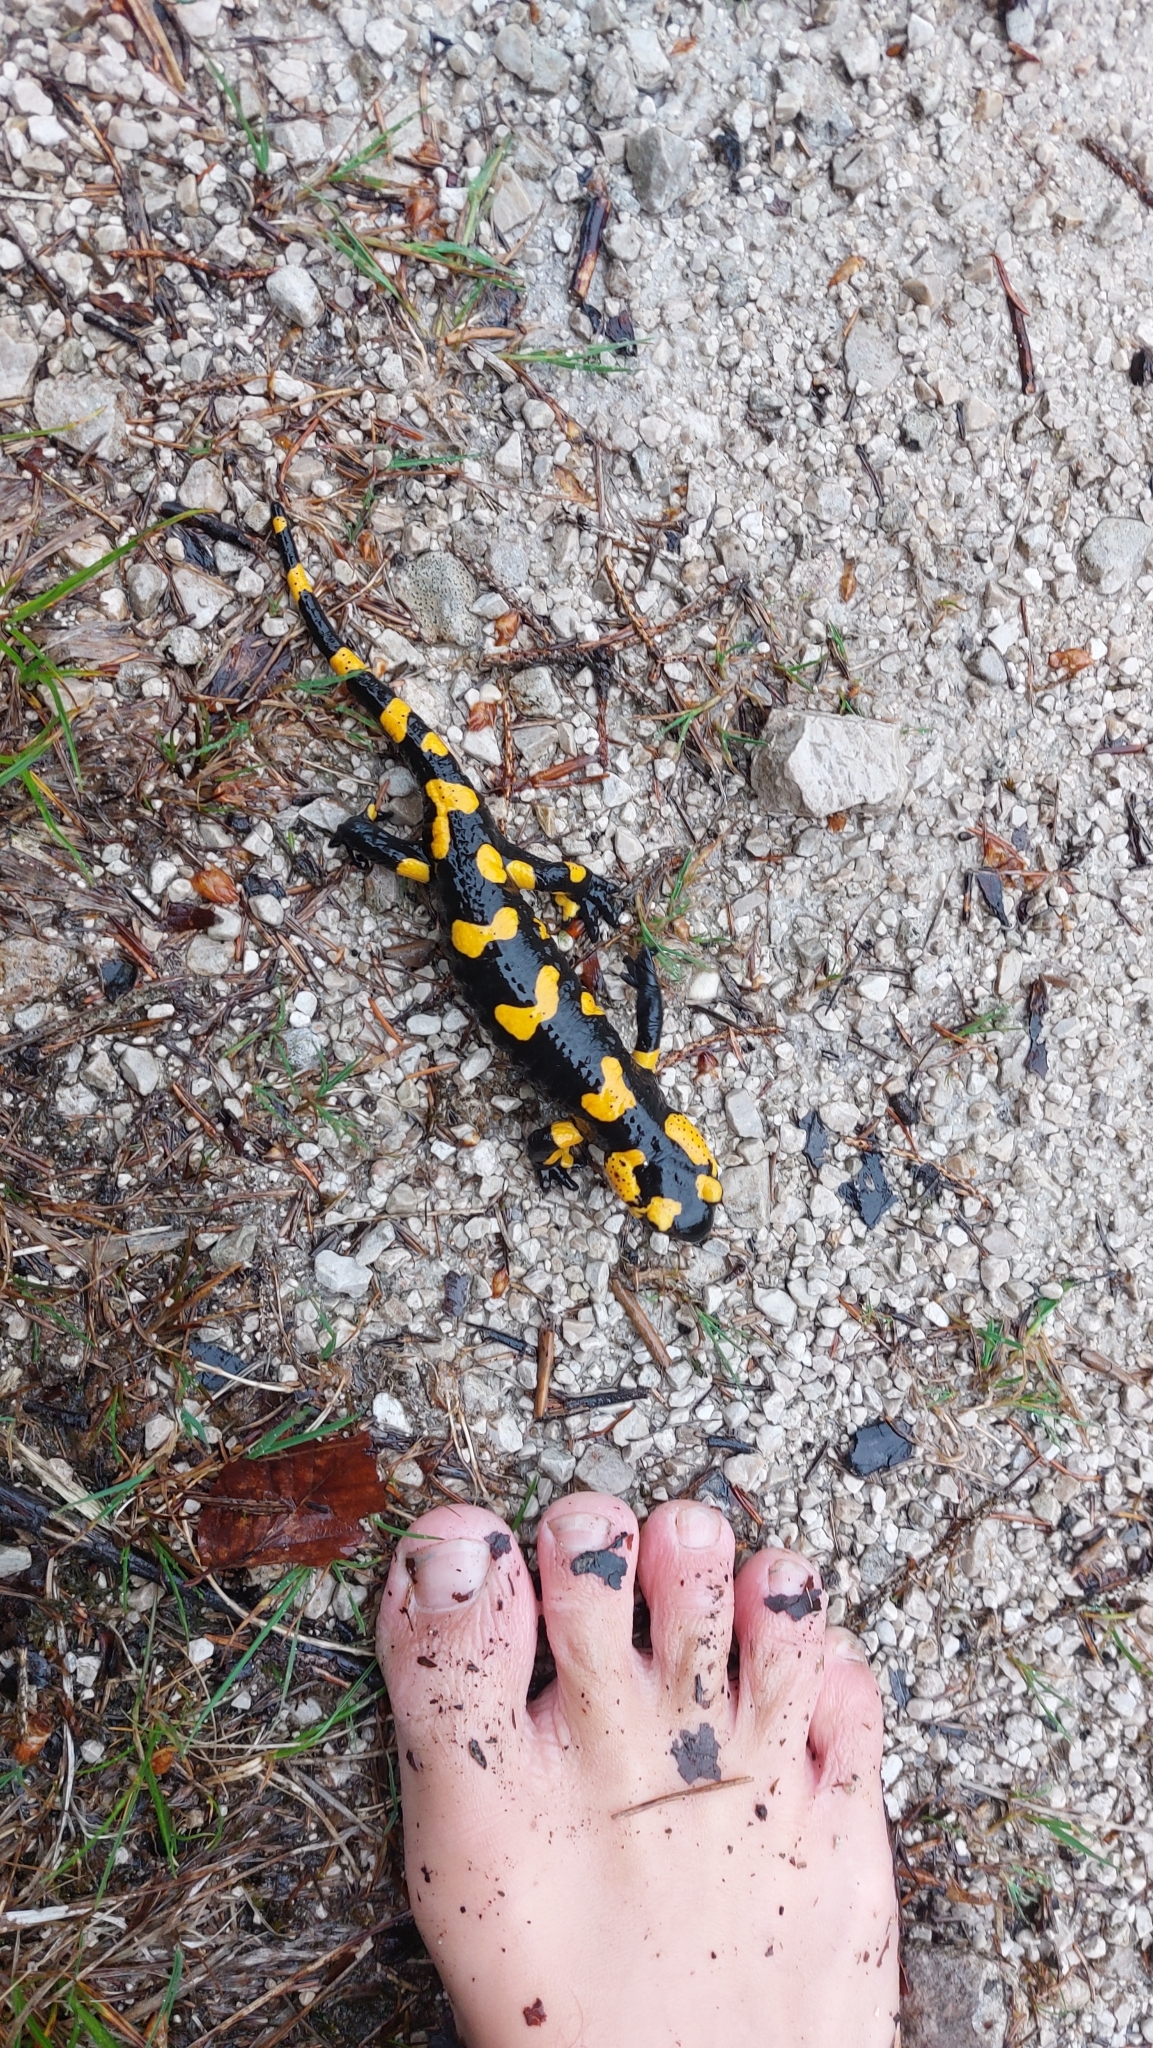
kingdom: Animalia
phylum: Chordata
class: Amphibia
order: Caudata
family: Salamandridae
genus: Salamandra
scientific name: Salamandra salamandra
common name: Fire salamander
